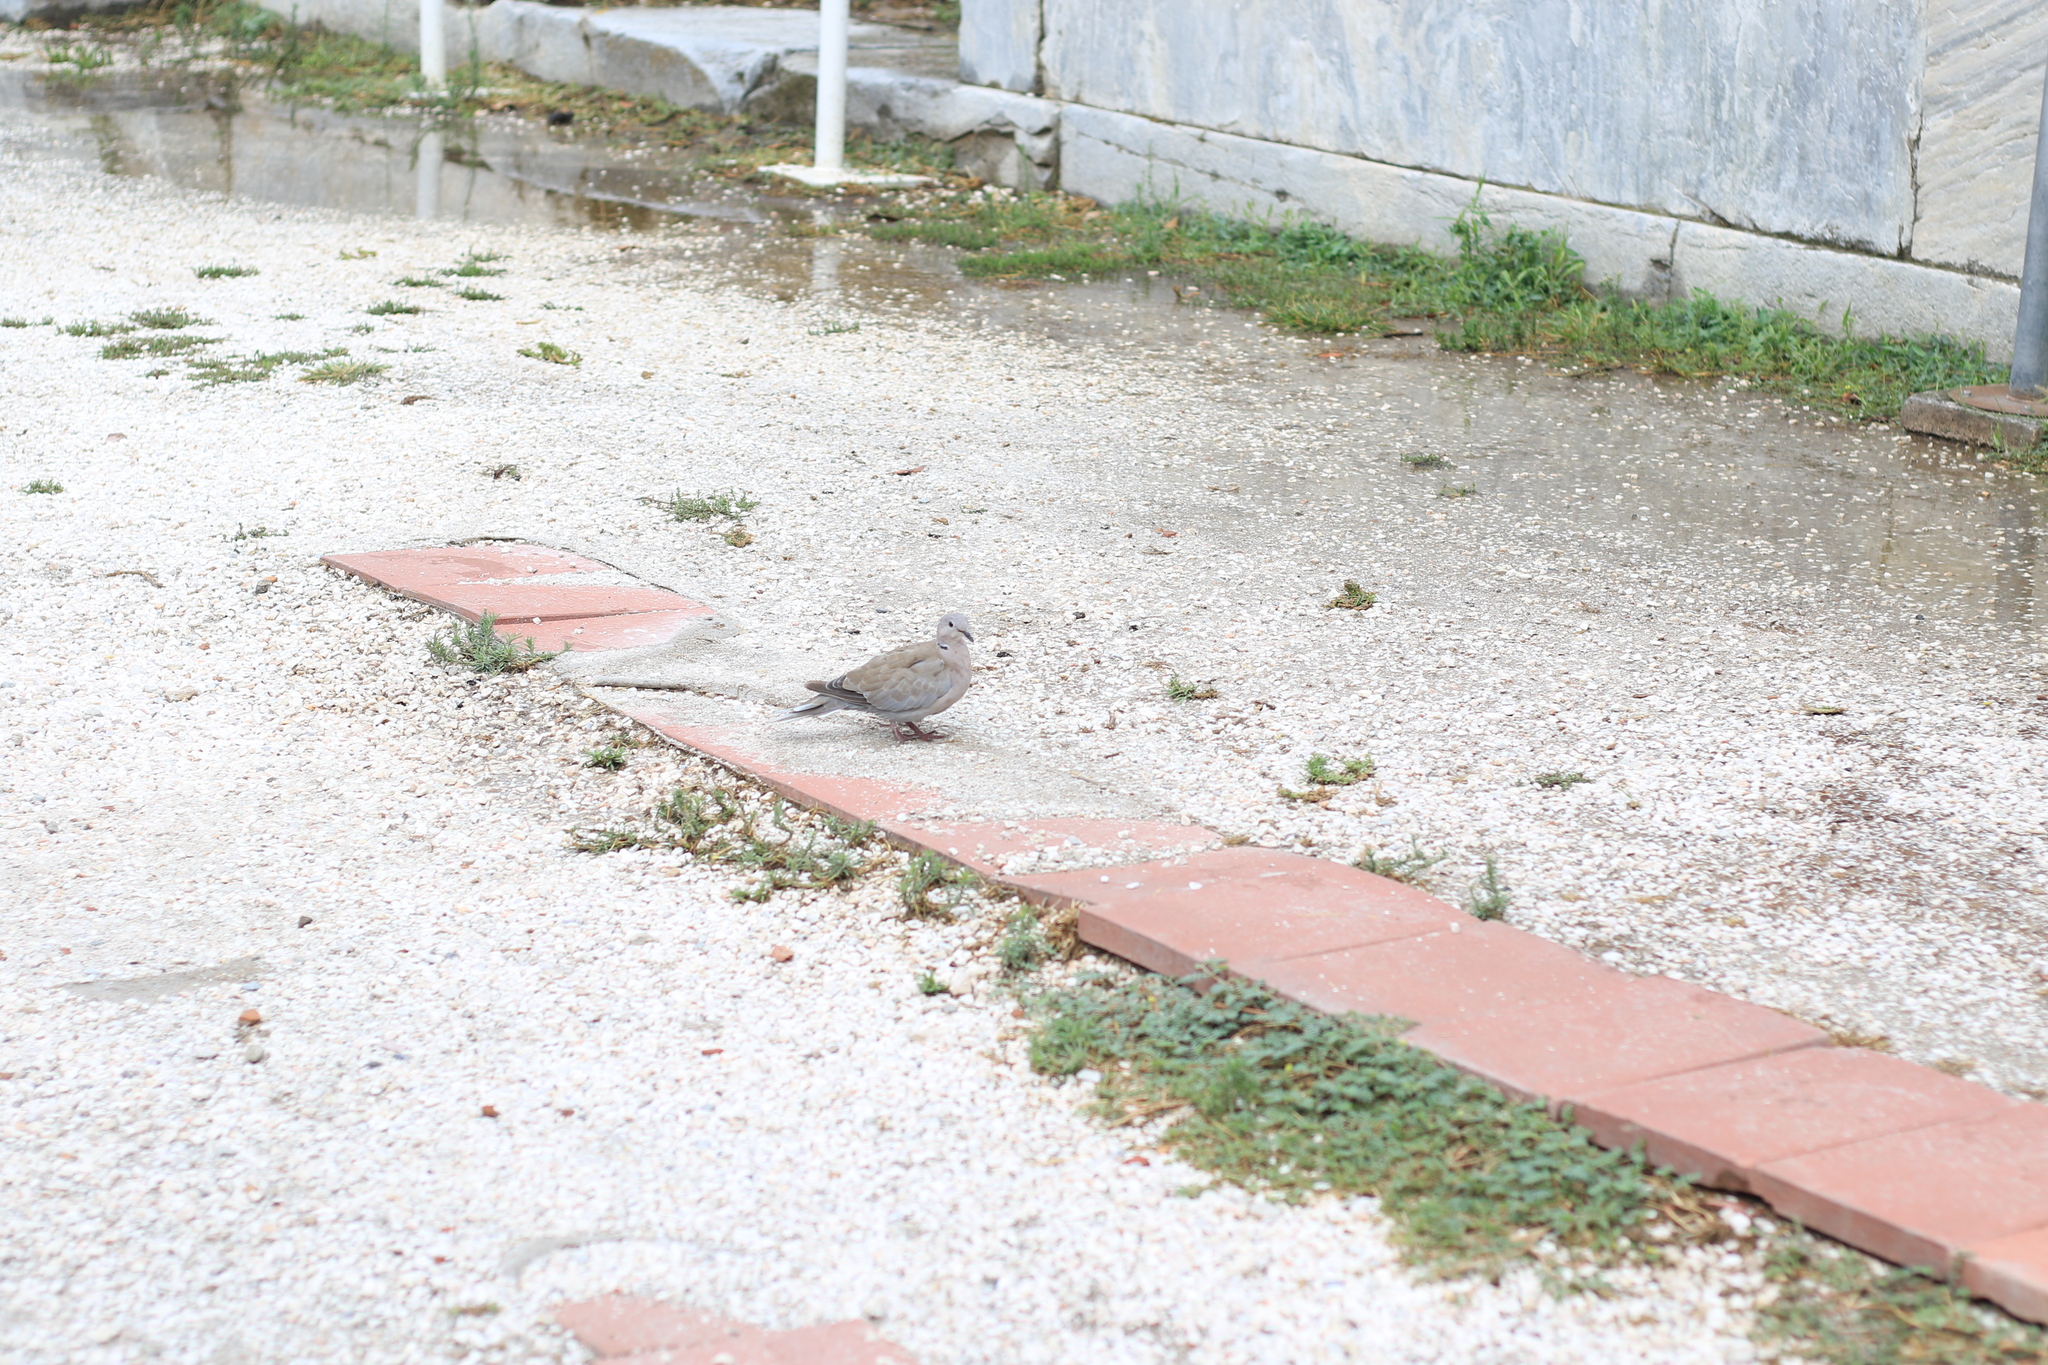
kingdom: Animalia
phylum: Chordata
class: Aves
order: Columbiformes
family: Columbidae
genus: Streptopelia
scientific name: Streptopelia decaocto
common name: Eurasian collared dove
